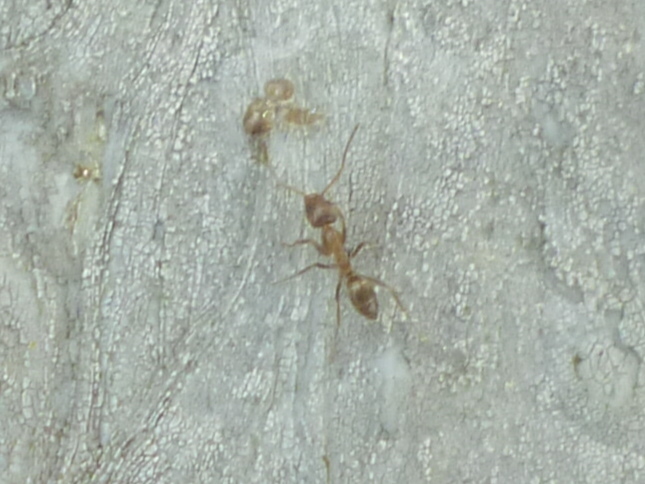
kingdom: Animalia
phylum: Arthropoda
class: Insecta
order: Hymenoptera
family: Formicidae
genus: Linepithema
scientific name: Linepithema humile
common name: Argentine ant
